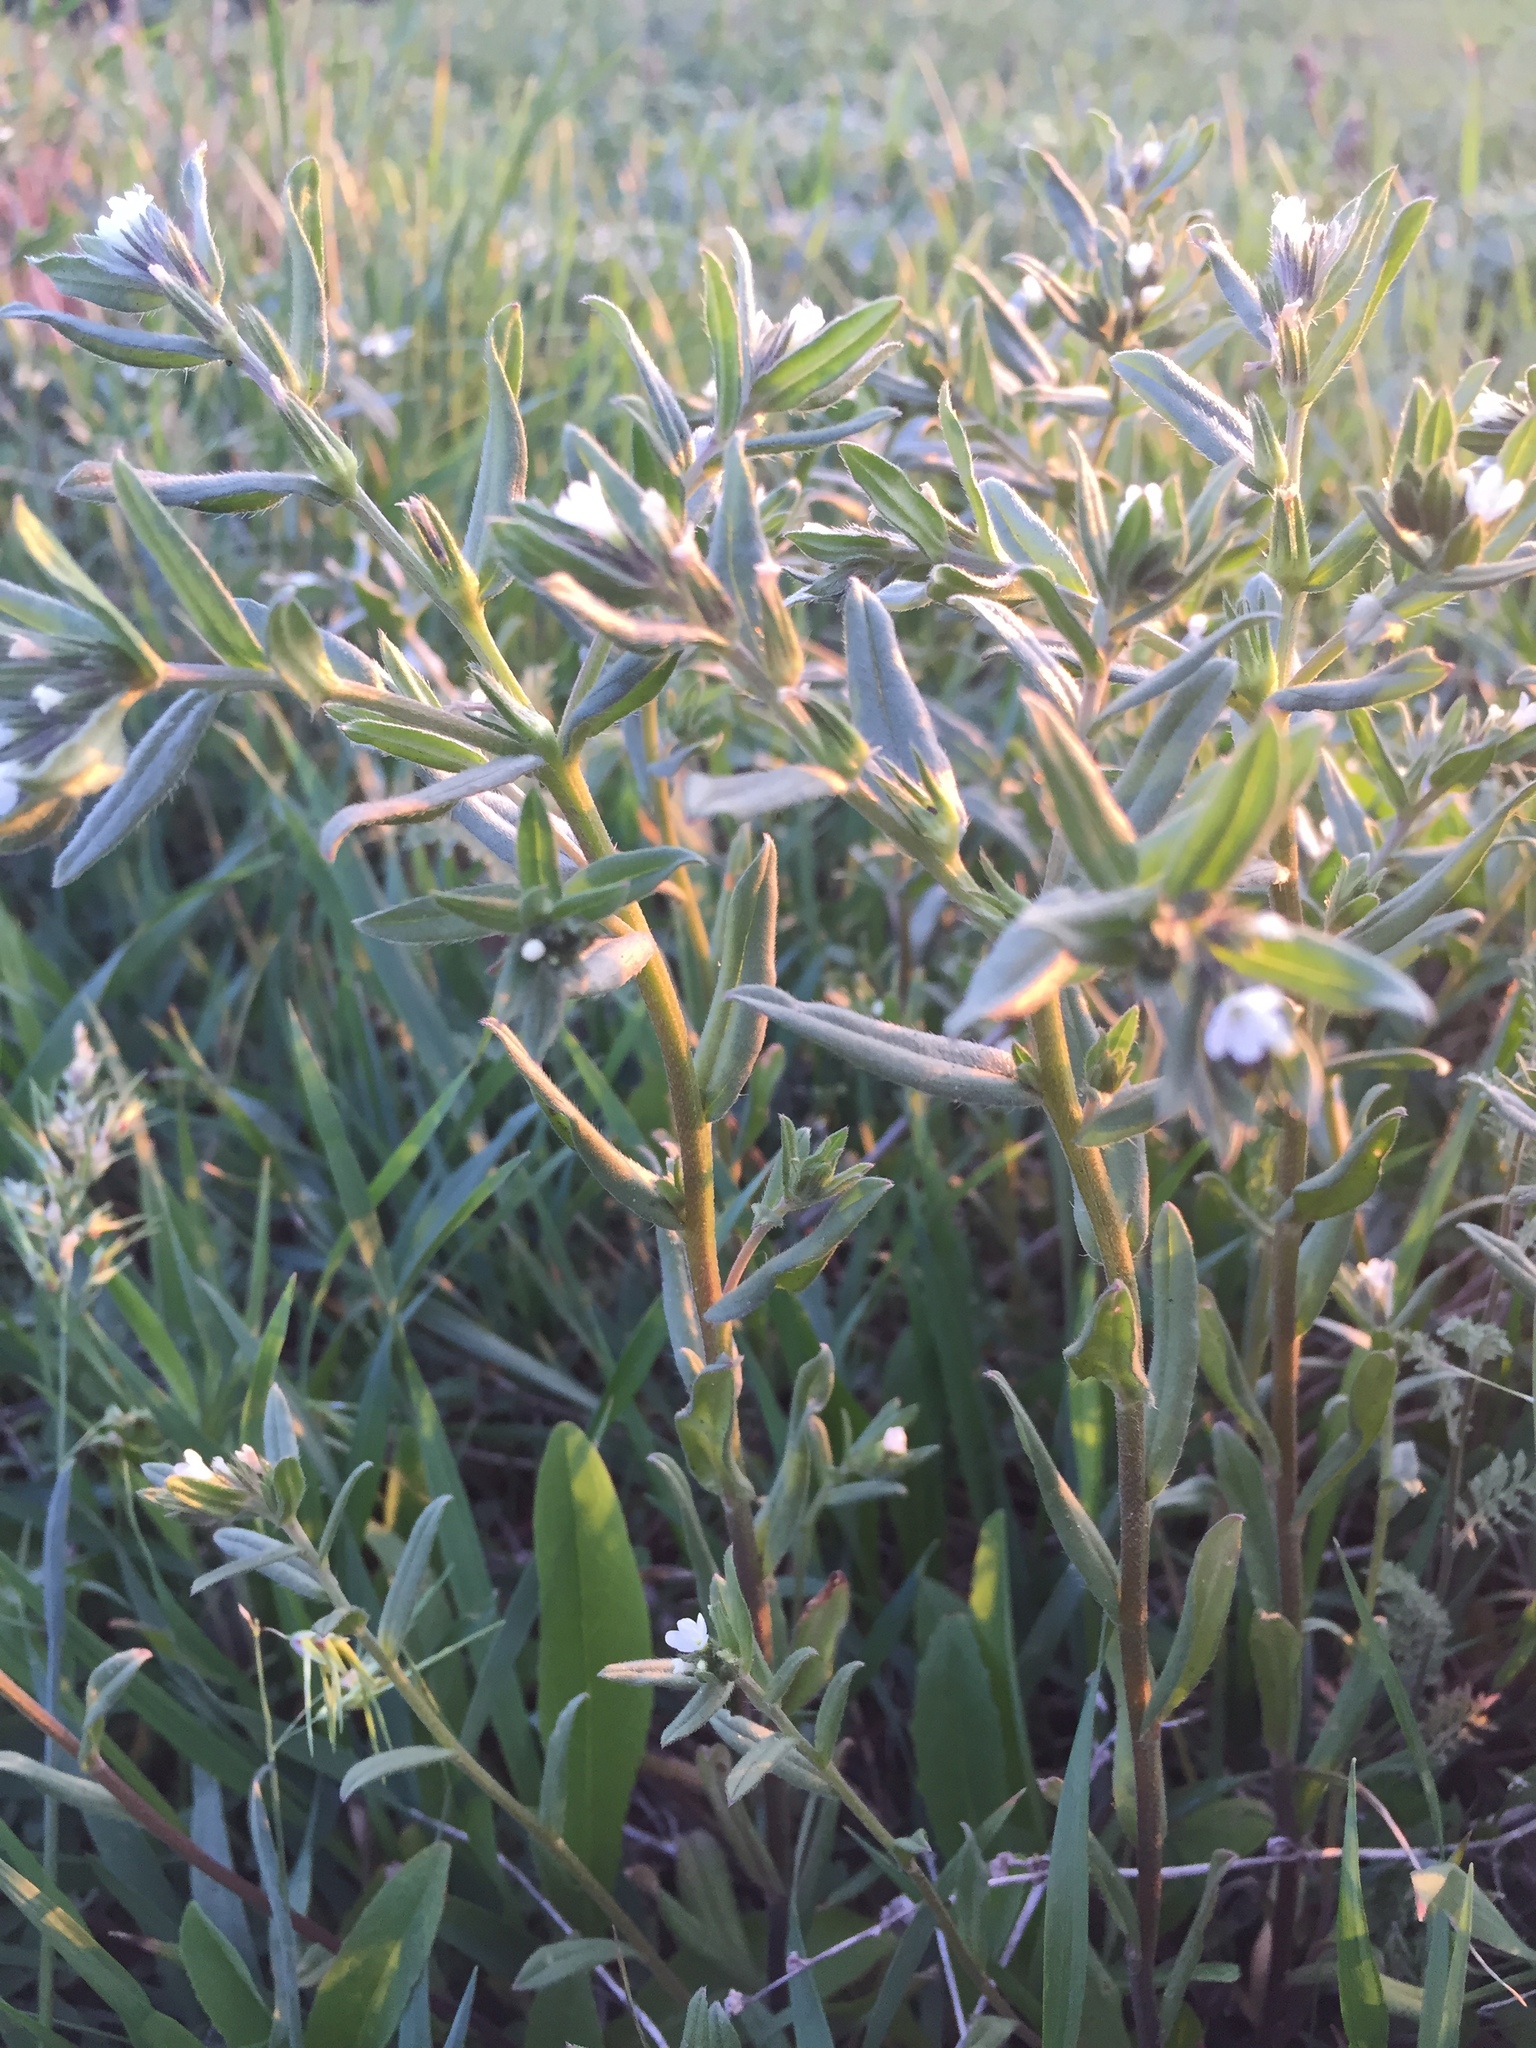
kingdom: Plantae
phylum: Tracheophyta
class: Magnoliopsida
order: Boraginales
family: Boraginaceae
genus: Buglossoides
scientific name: Buglossoides arvensis
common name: Corn gromwell
